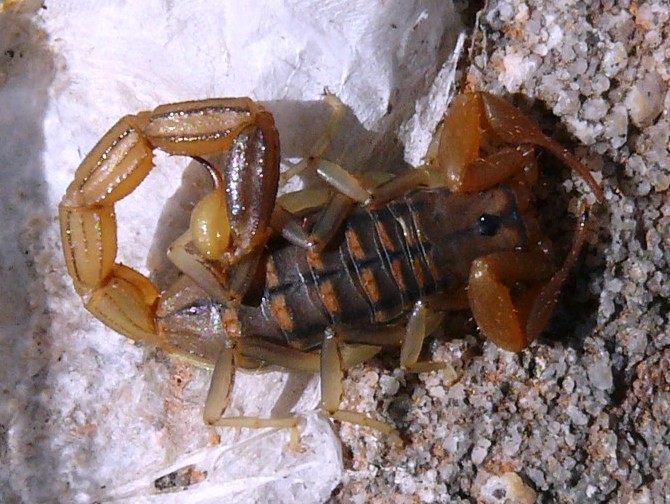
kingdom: Animalia
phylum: Arthropoda
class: Arachnida
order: Scorpiones
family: Buthidae
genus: Uroplectes
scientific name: Uroplectes carinatus
